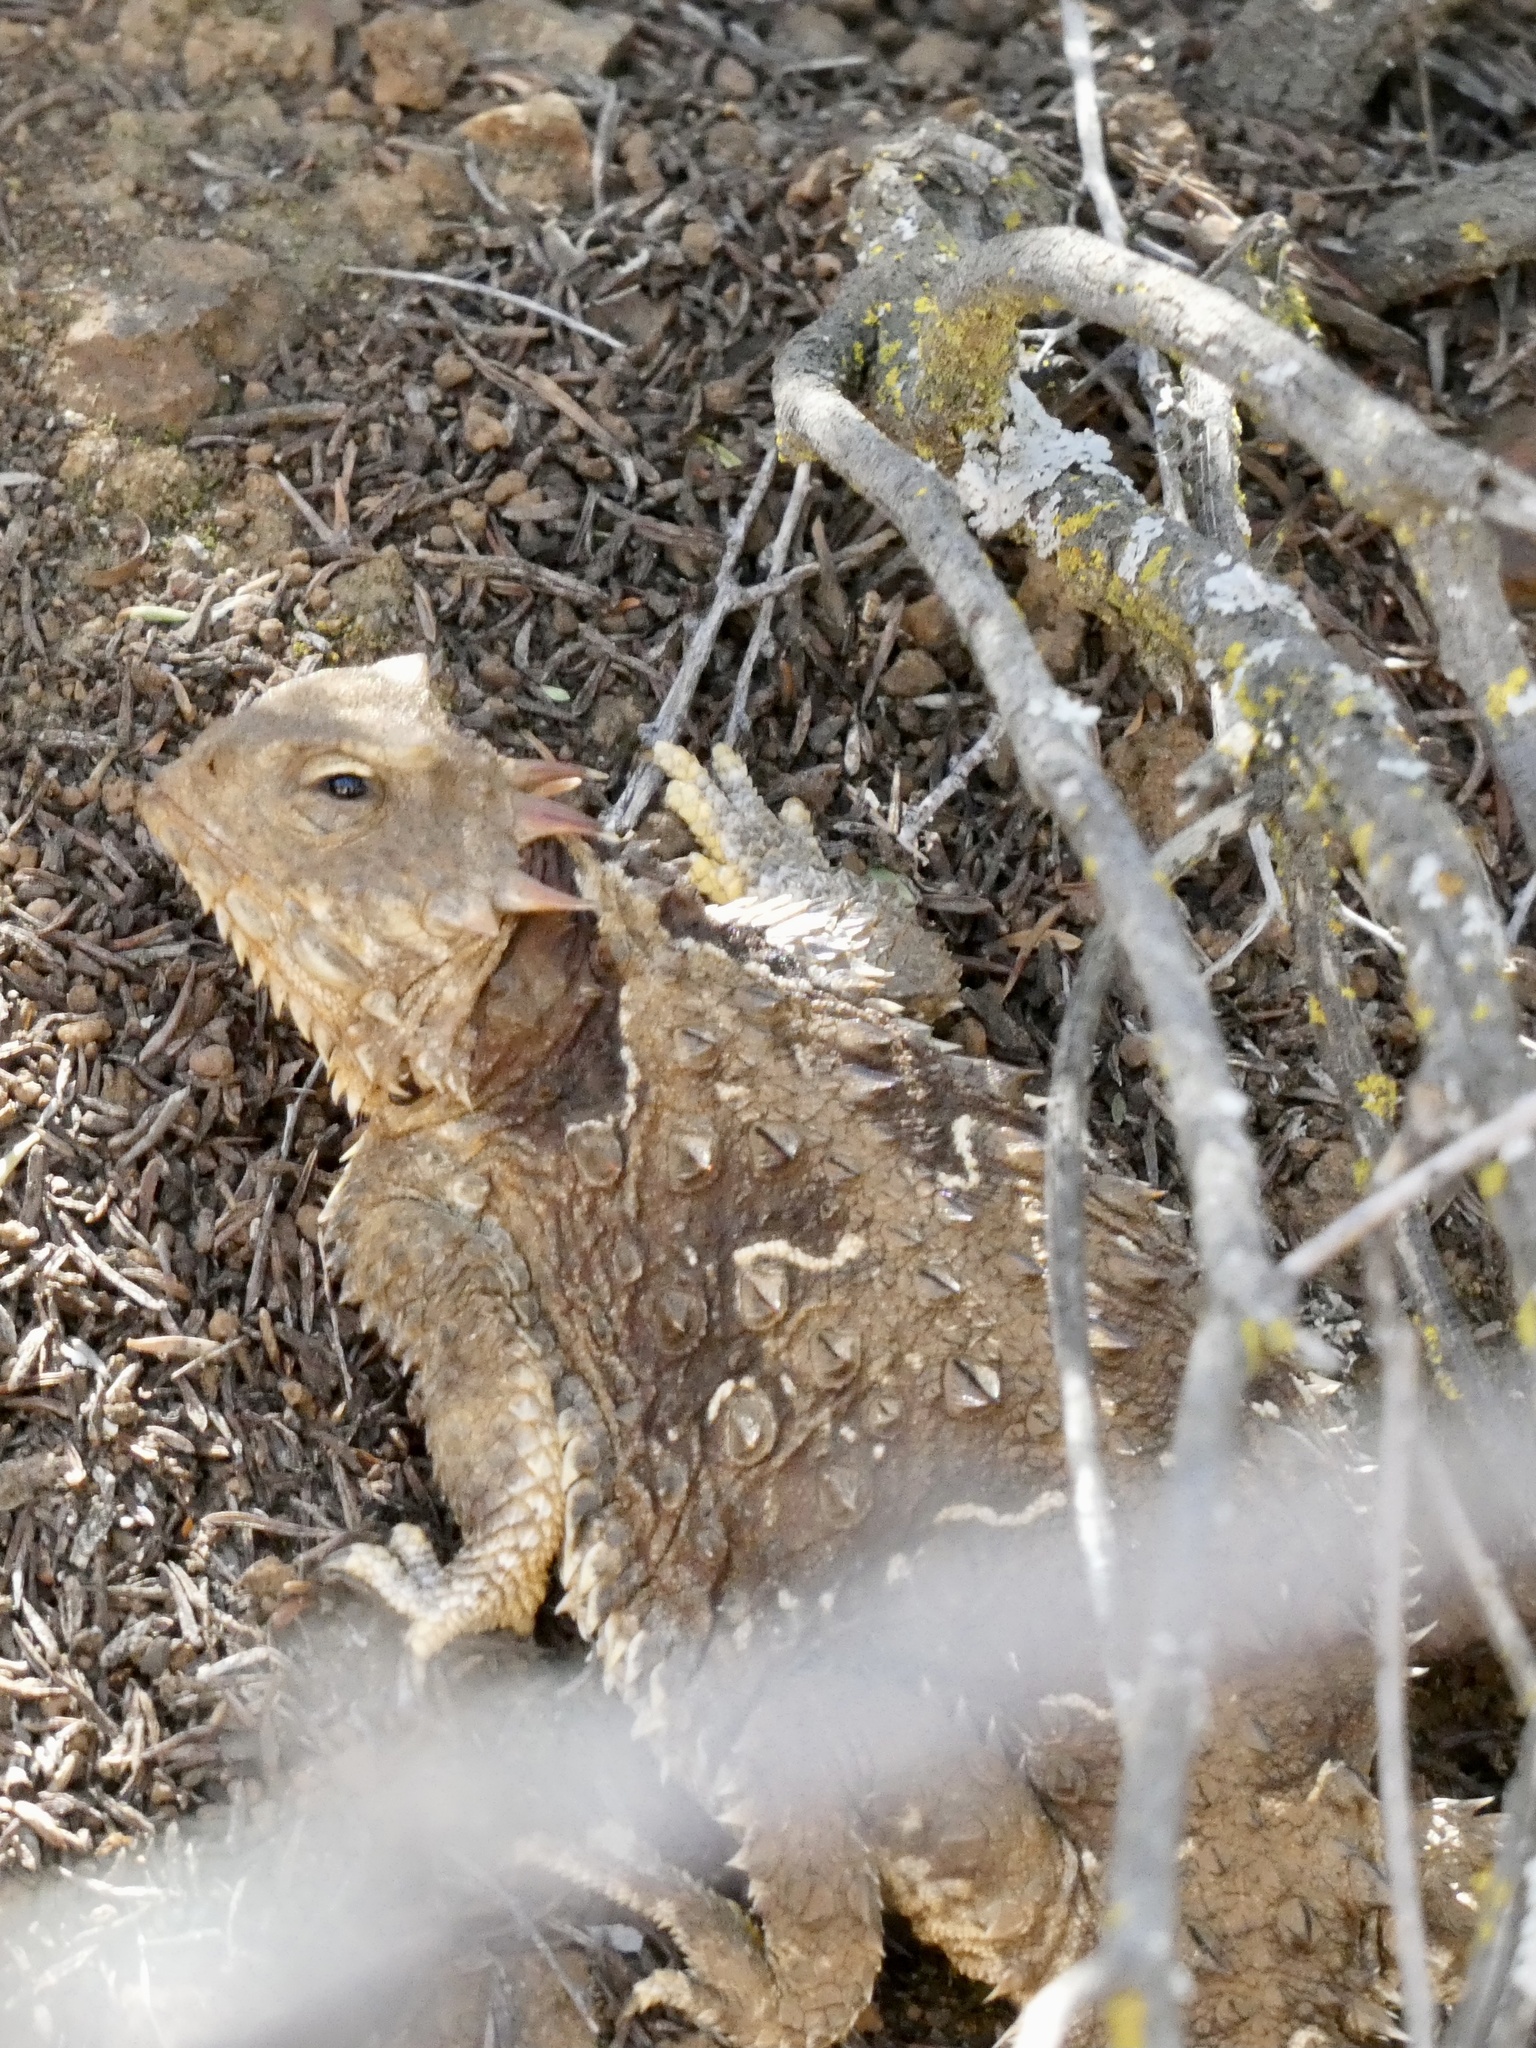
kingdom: Animalia
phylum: Chordata
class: Squamata
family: Phrynosomatidae
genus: Phrynosoma
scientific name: Phrynosoma blainvillii
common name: San diego horned lizard
